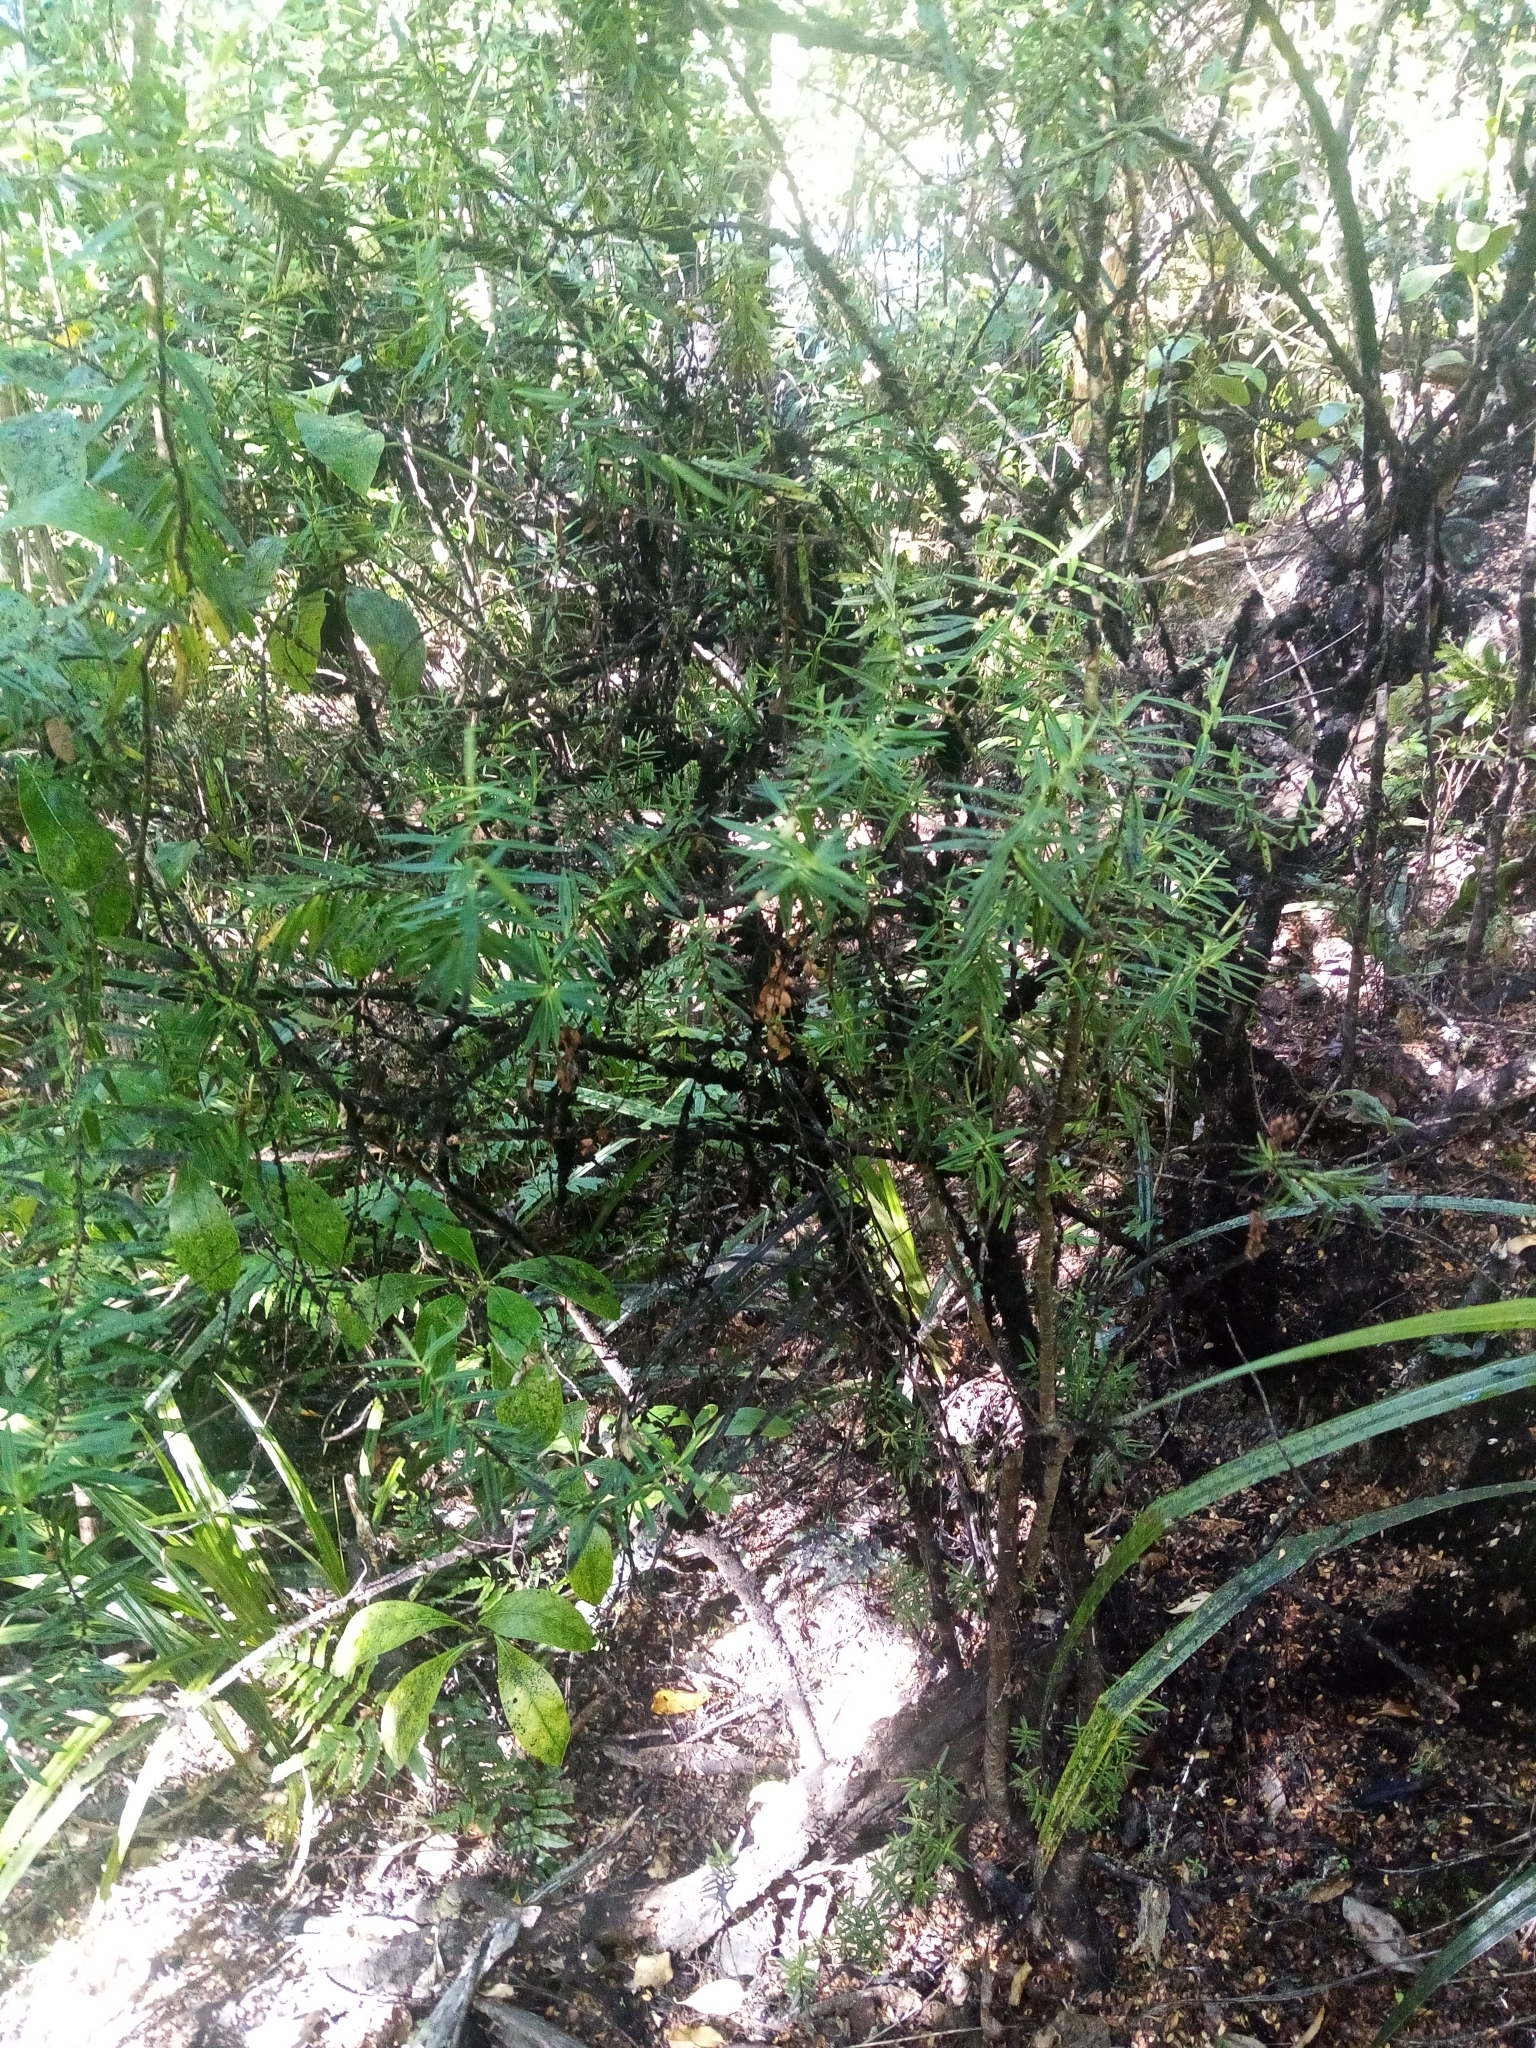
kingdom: Plantae
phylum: Tracheophyta
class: Magnoliopsida
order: Lamiales
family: Plantaginaceae
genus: Veronica
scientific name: Veronica leiophylla
